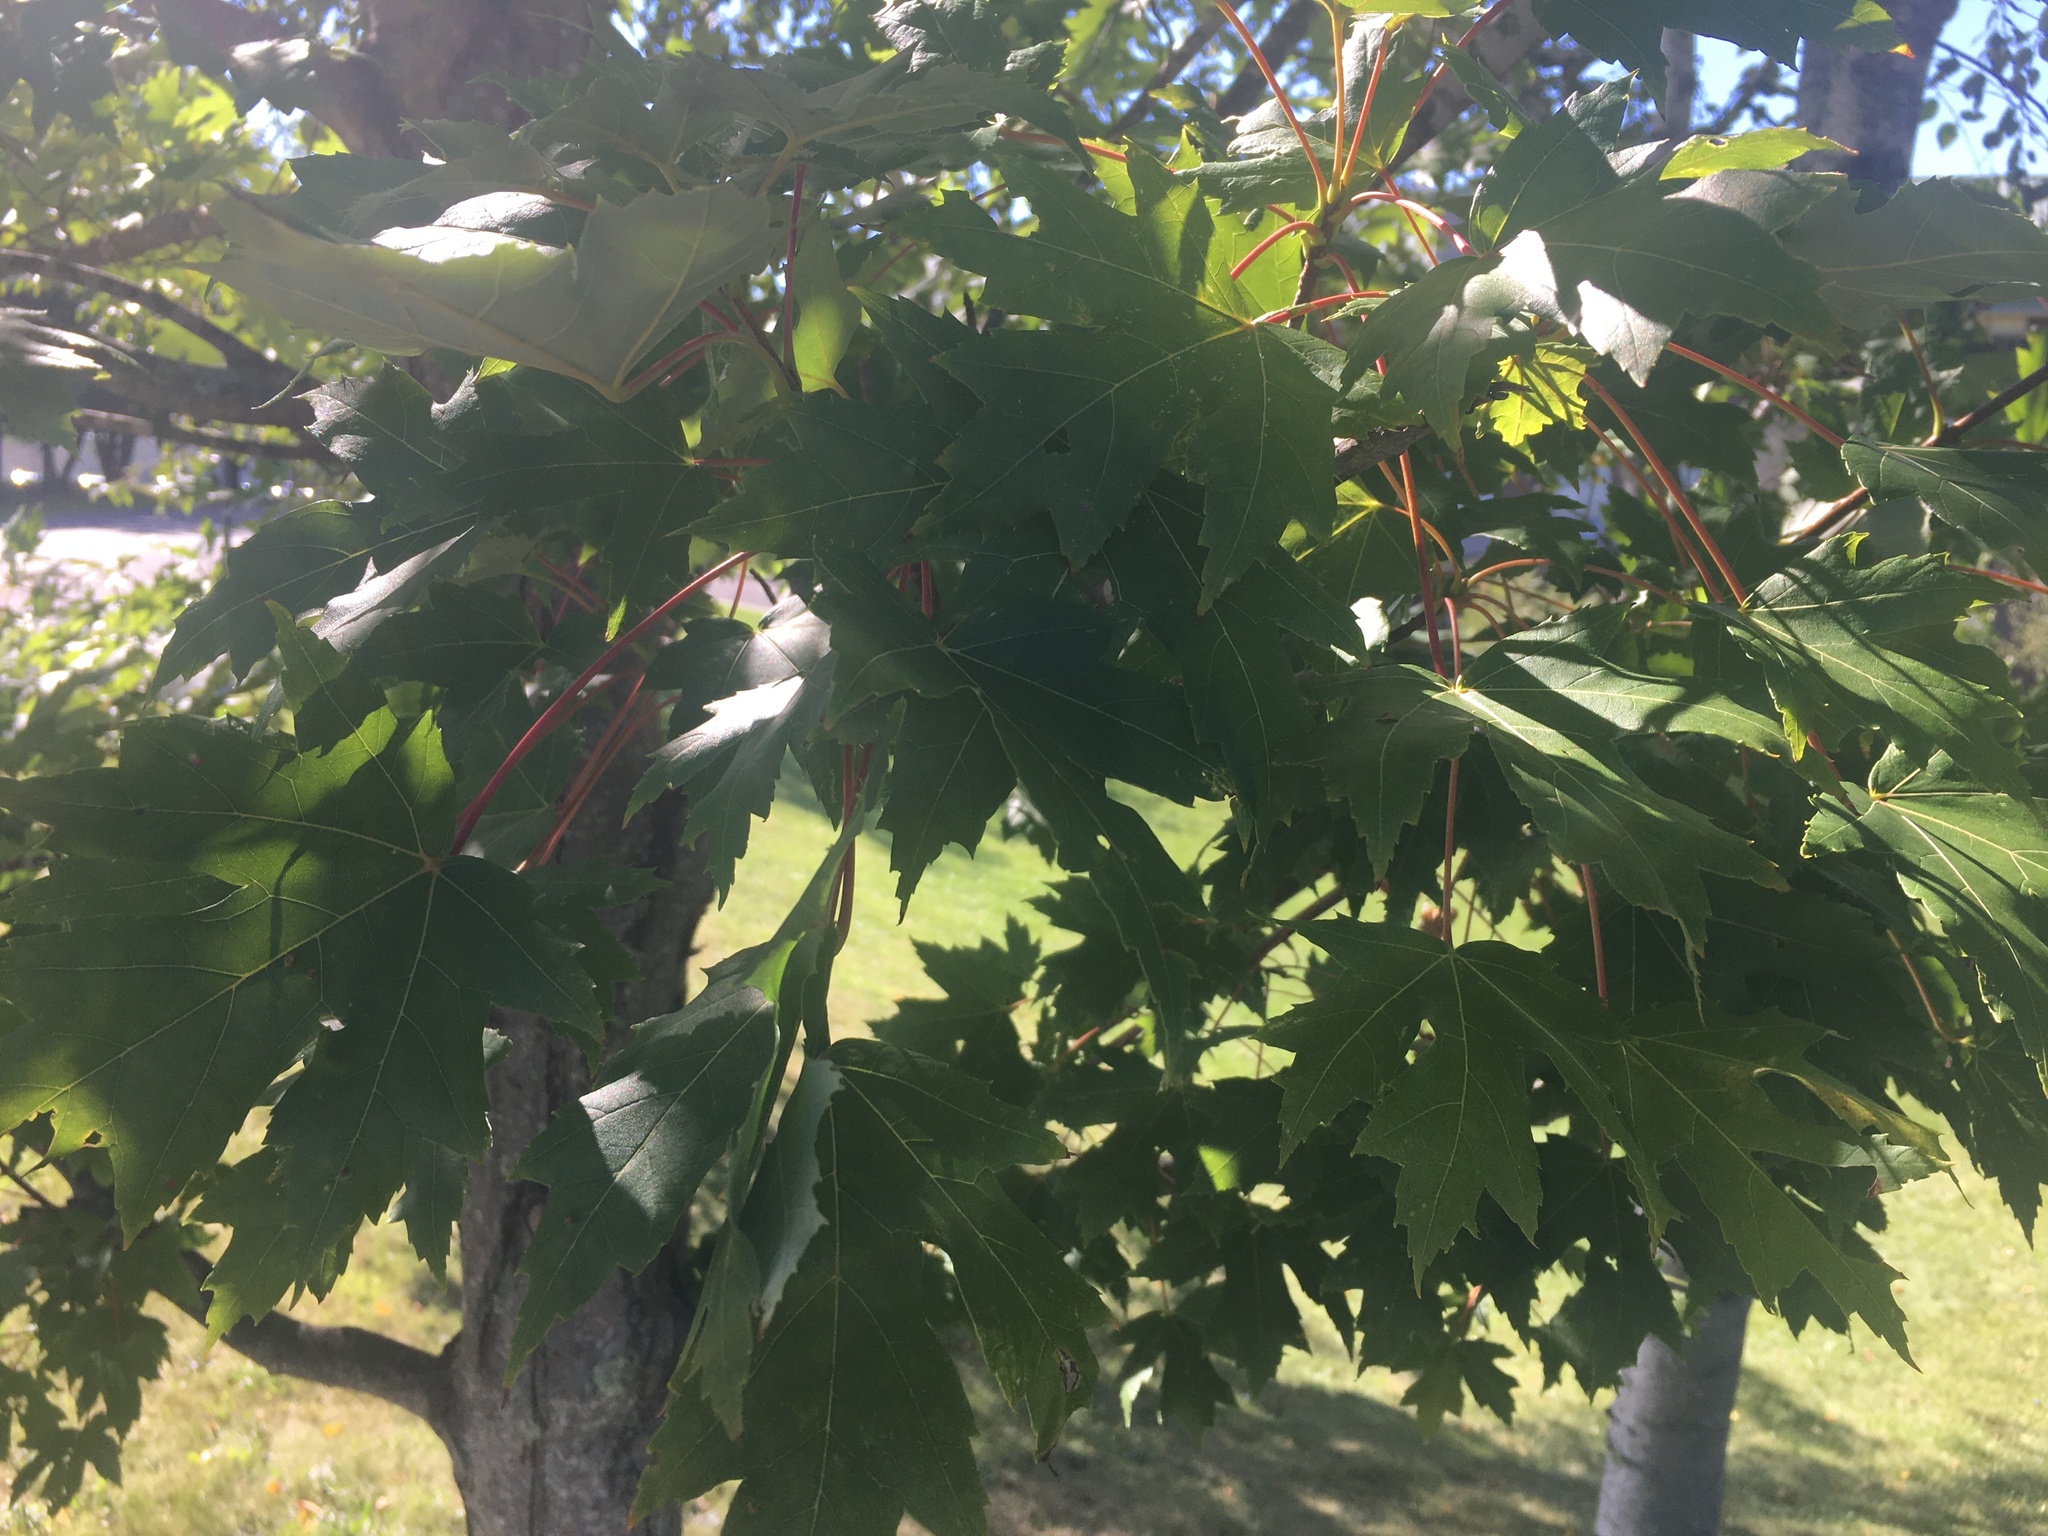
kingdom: Plantae
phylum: Tracheophyta
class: Magnoliopsida
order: Sapindales
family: Sapindaceae
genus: Acer
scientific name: Acer saccharinum
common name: Silver maple
